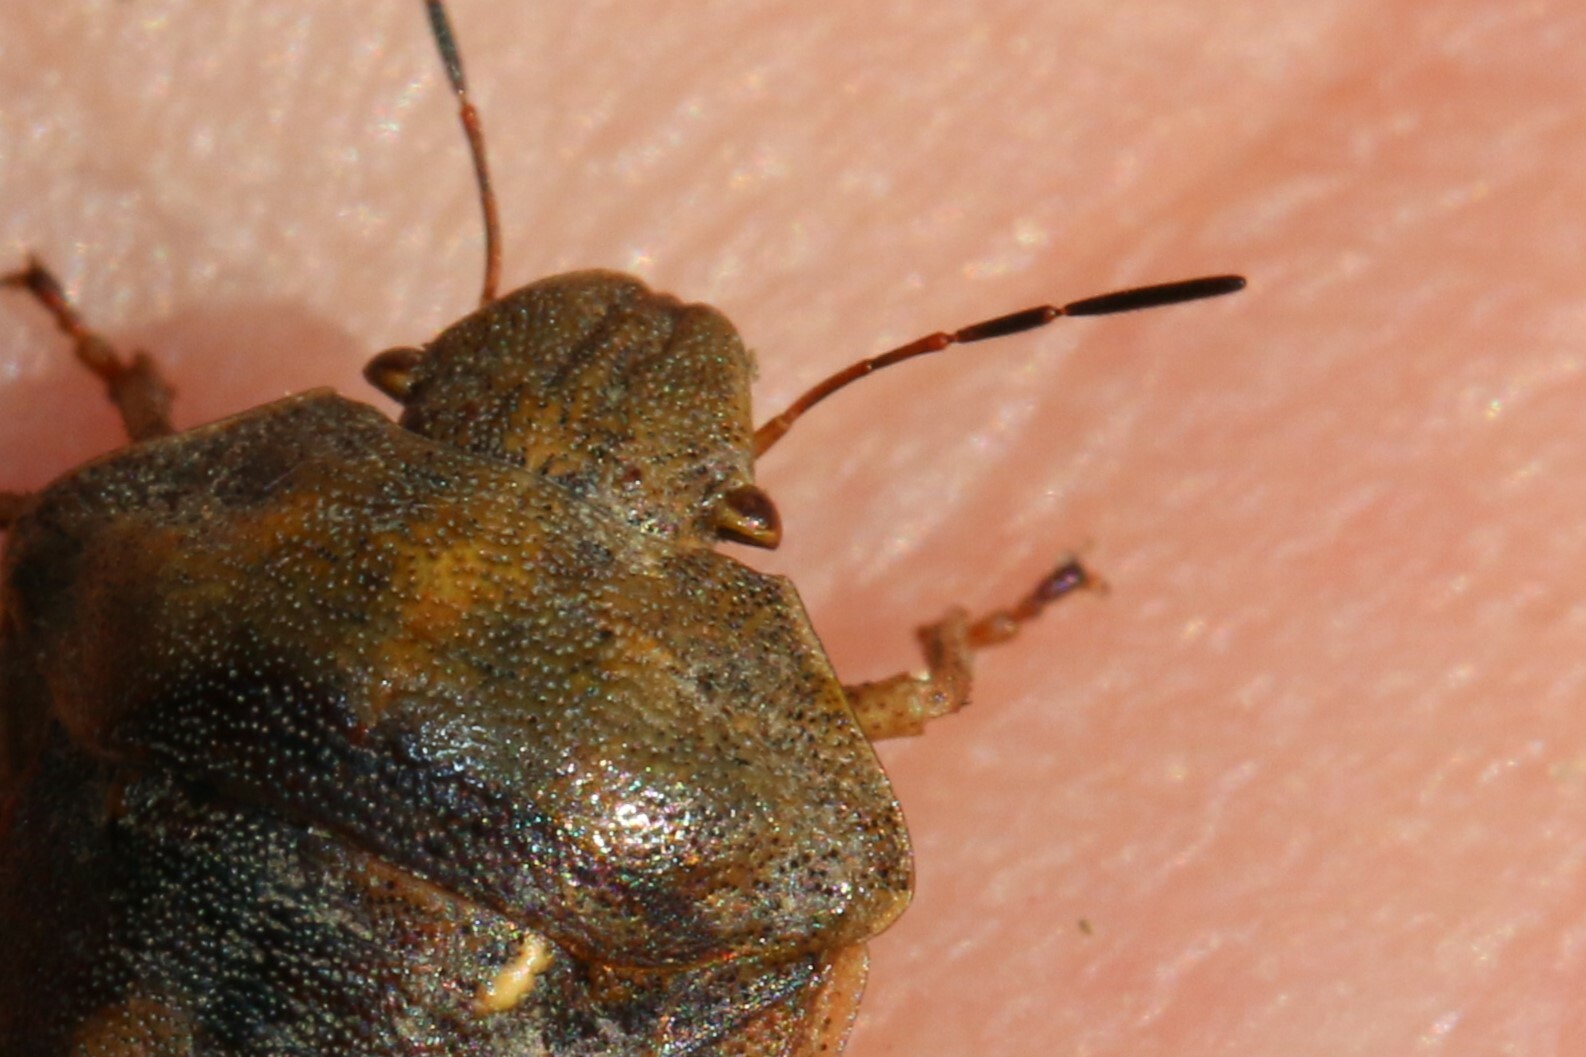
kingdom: Animalia
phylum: Arthropoda
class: Insecta
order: Hemiptera
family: Scutelleridae
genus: Eurygaster
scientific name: Eurygaster testudinaria
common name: Tortoise bug
